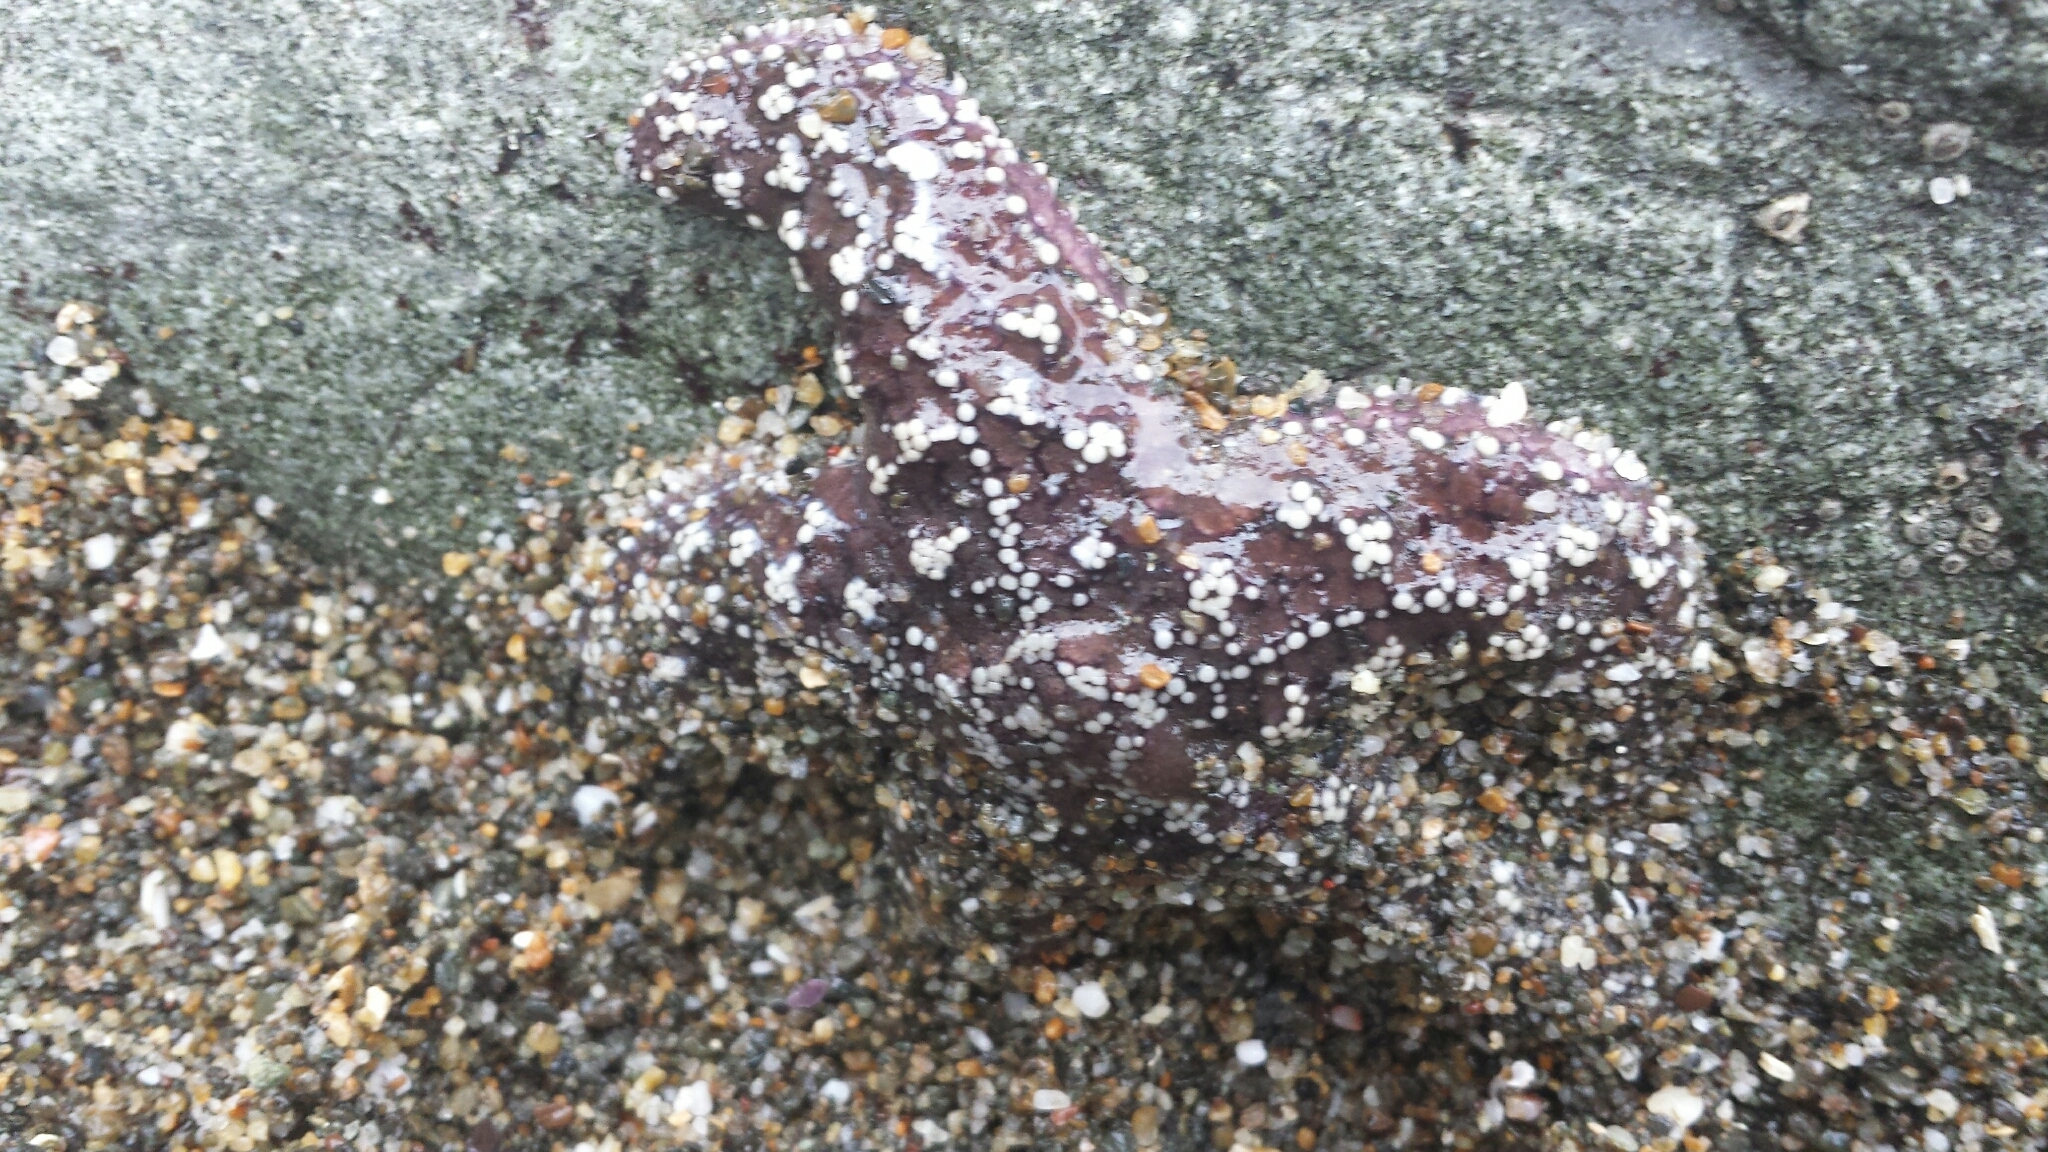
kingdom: Animalia
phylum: Echinodermata
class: Asteroidea
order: Forcipulatida
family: Asteriidae
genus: Pisaster
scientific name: Pisaster ochraceus
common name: Ochre stars
